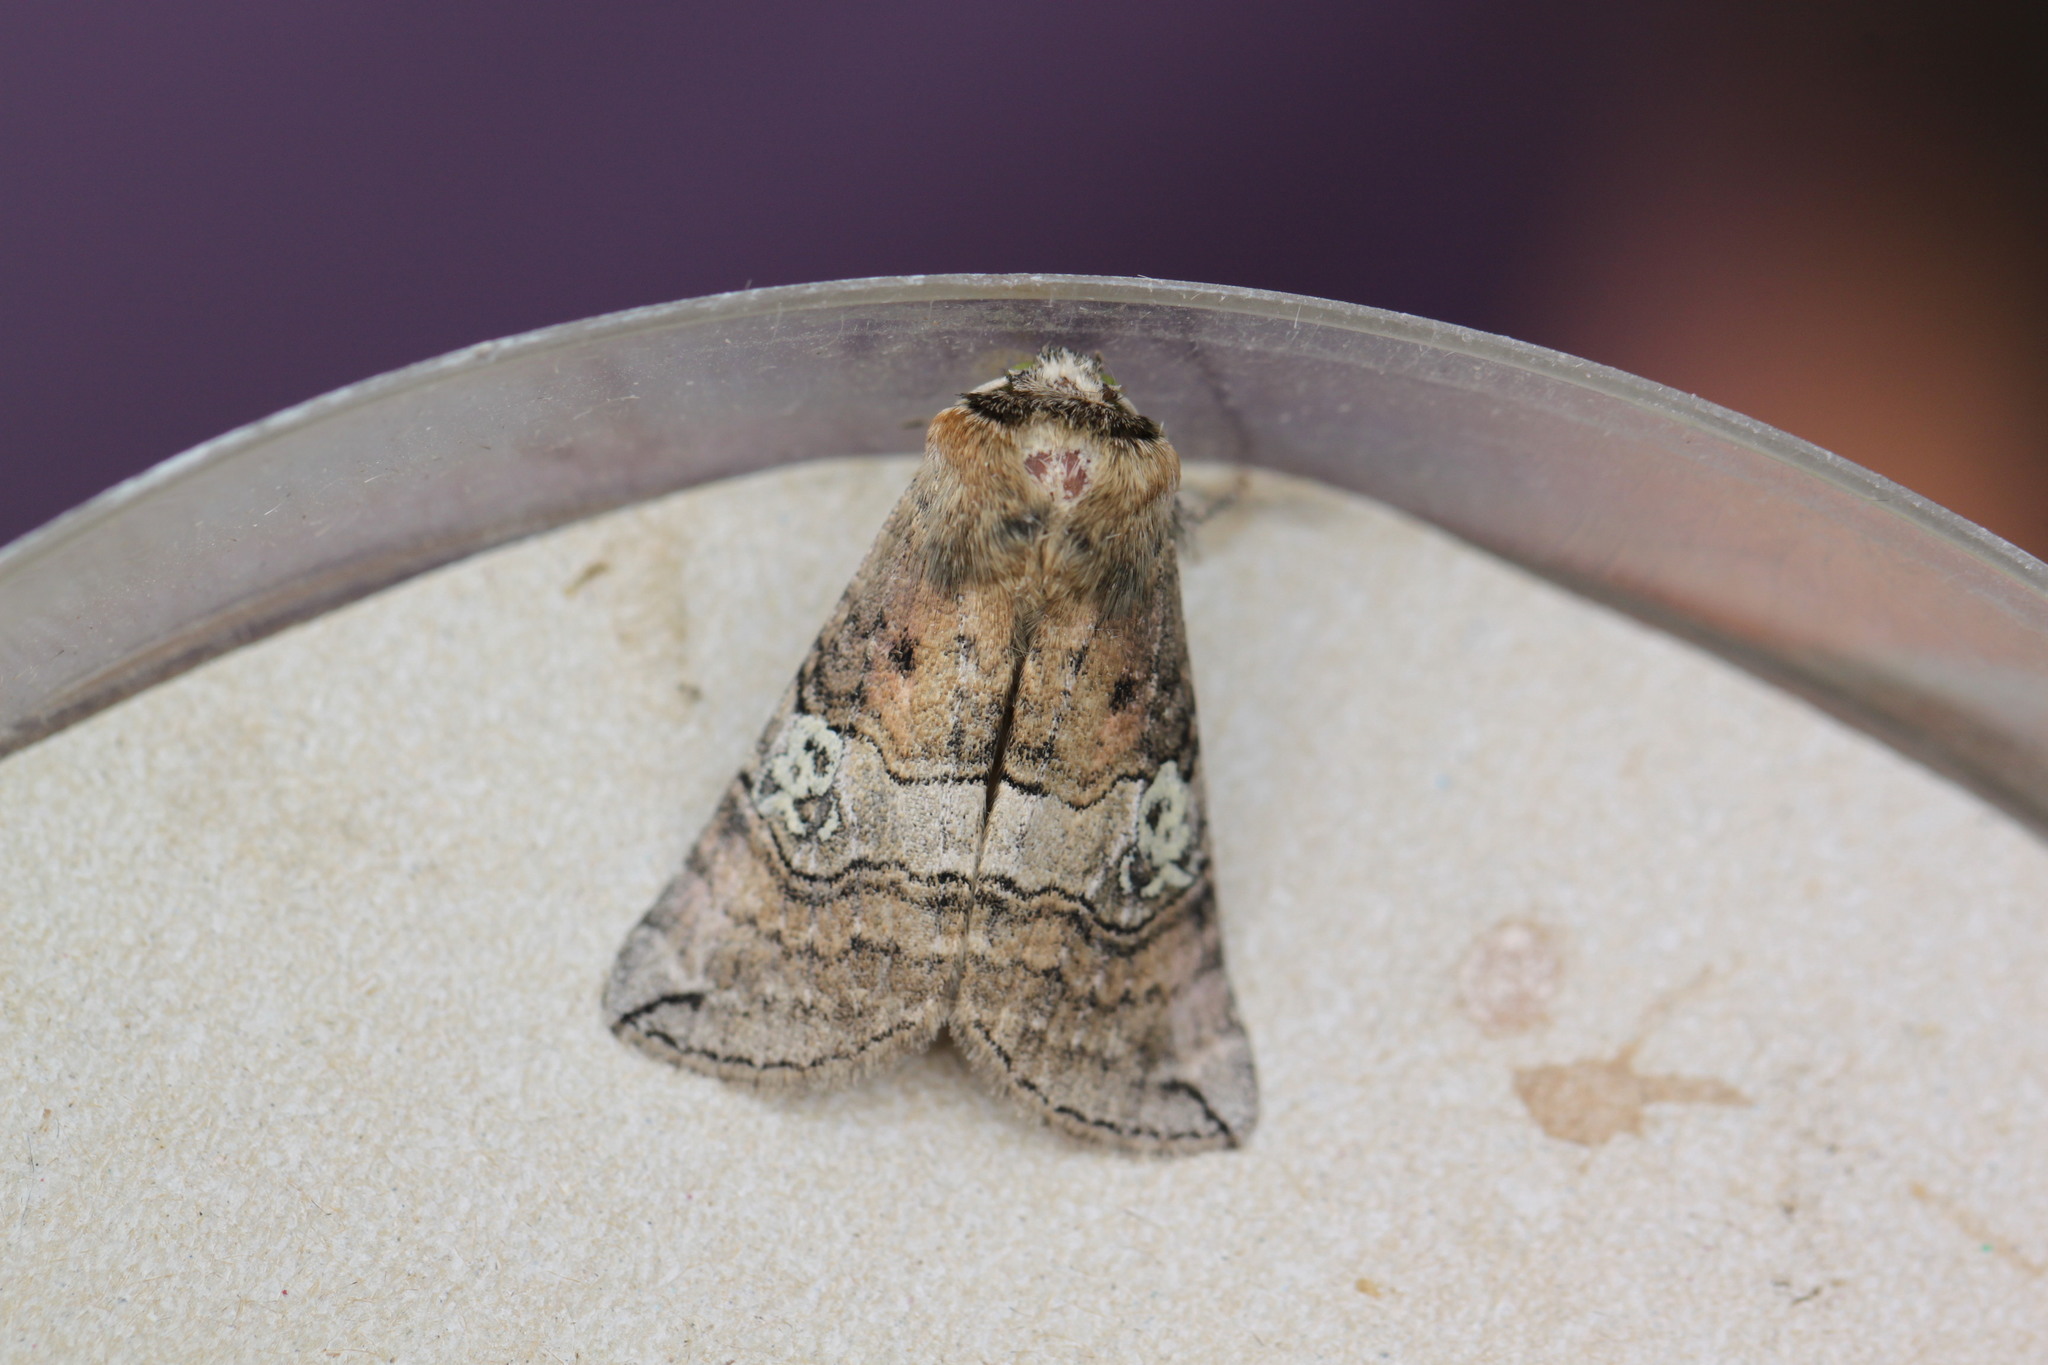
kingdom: Animalia
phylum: Arthropoda
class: Insecta
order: Lepidoptera
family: Drepanidae
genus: Tethea
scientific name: Tethea ocularis
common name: Figure of eighty
